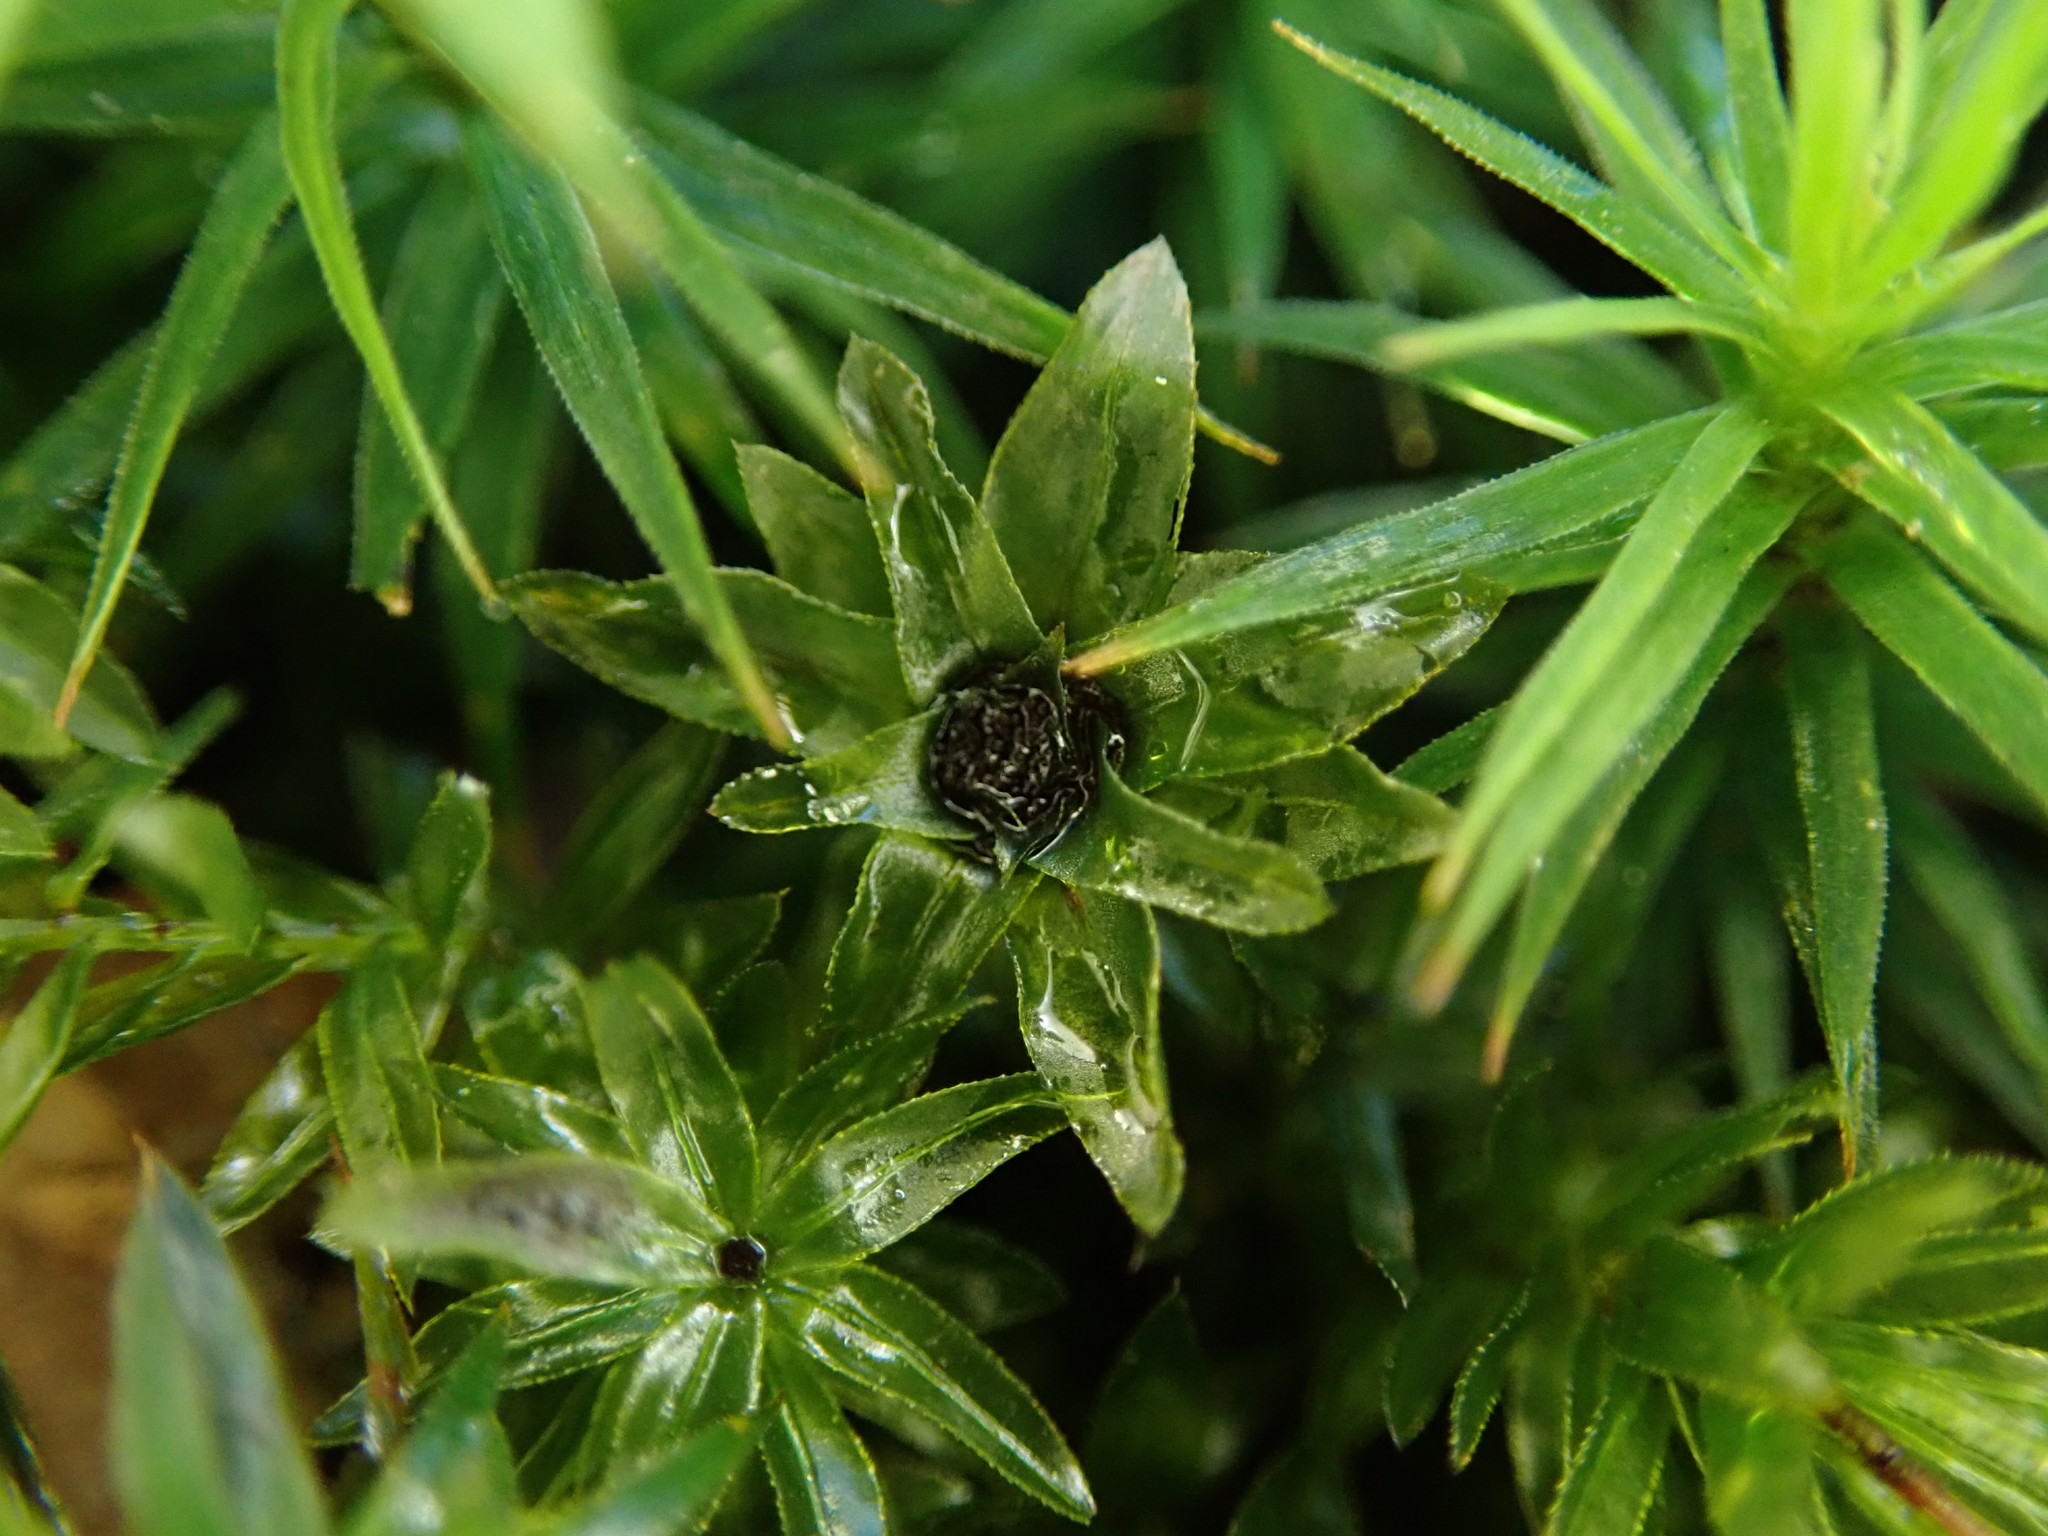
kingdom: Plantae
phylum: Bryophyta
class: Bryopsida
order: Bryales
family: Mniaceae
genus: Mnium
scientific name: Mnium hornum
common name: Swan's-neck leafy moss
